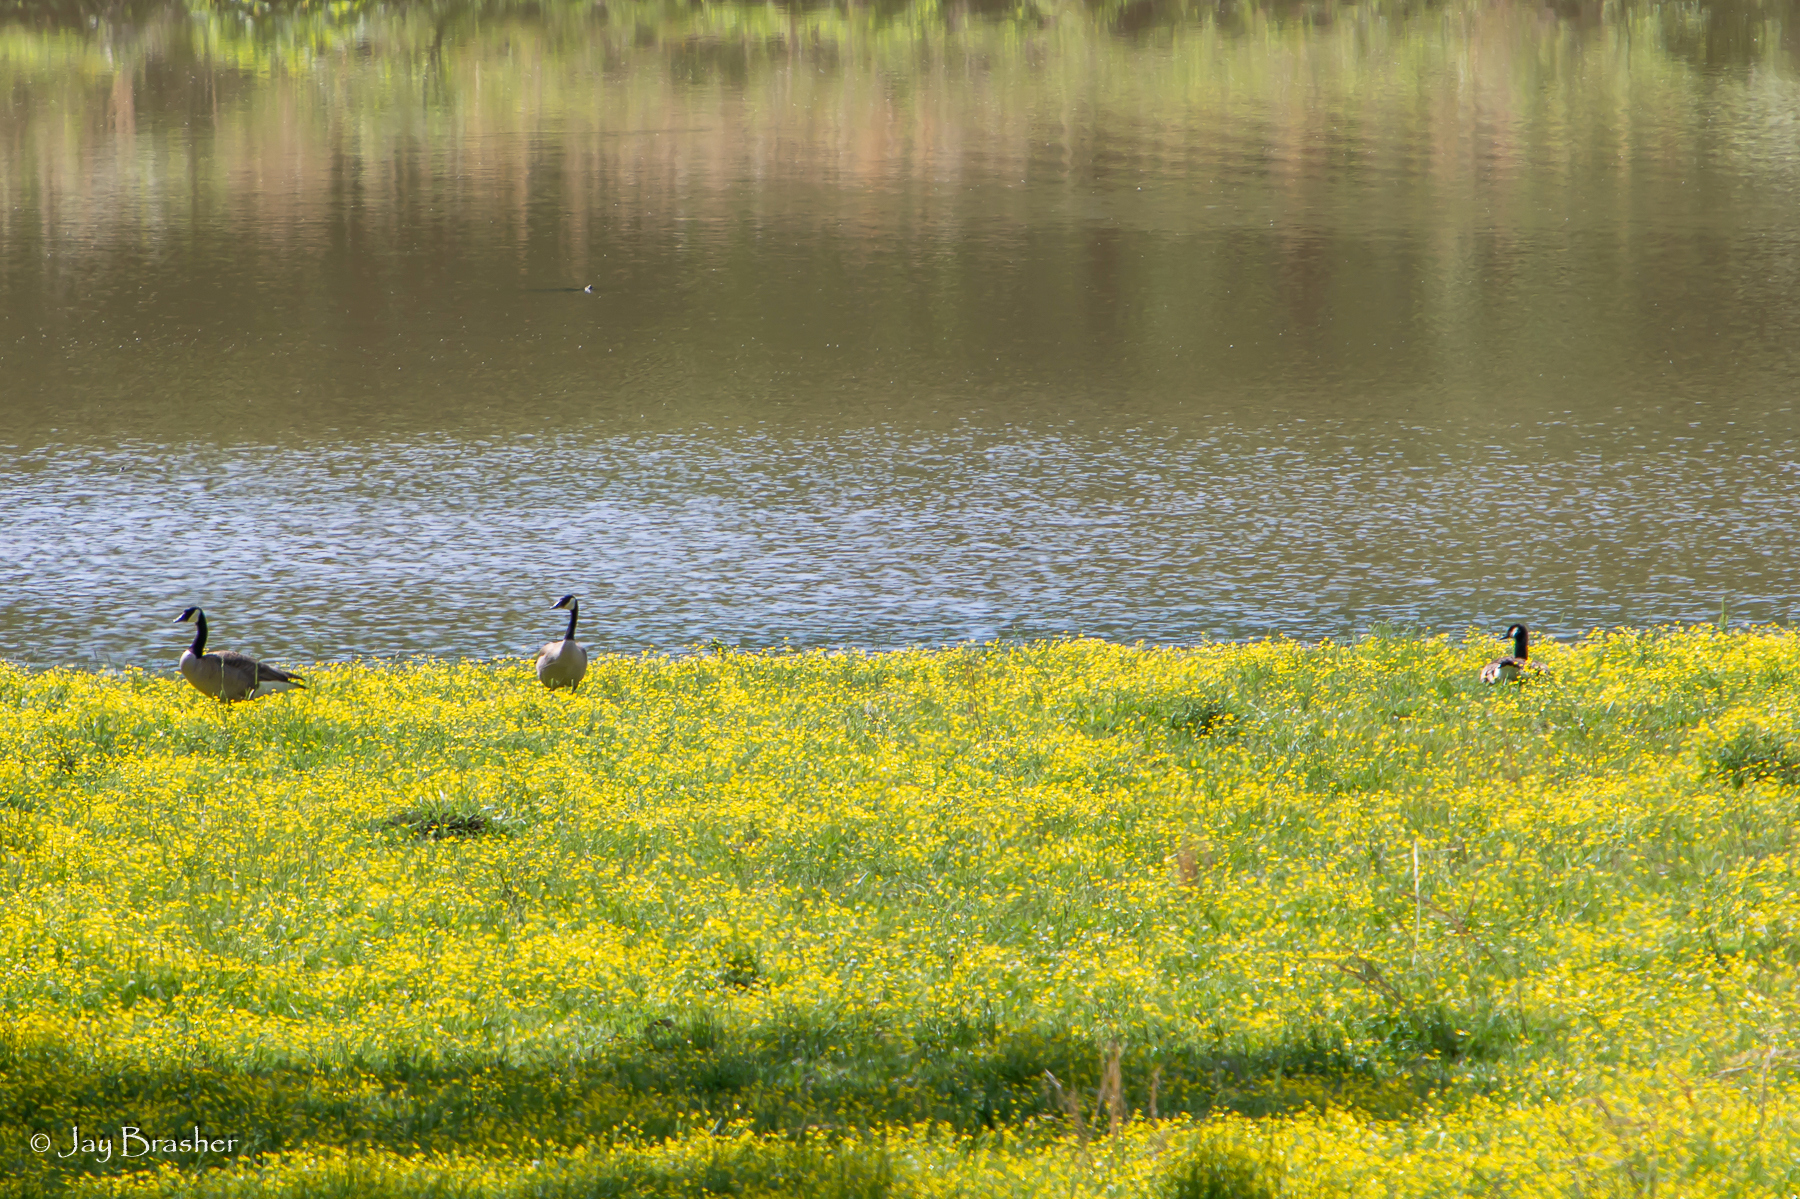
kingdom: Animalia
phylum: Chordata
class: Aves
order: Anseriformes
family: Anatidae
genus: Branta
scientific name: Branta canadensis
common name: Canada goose
